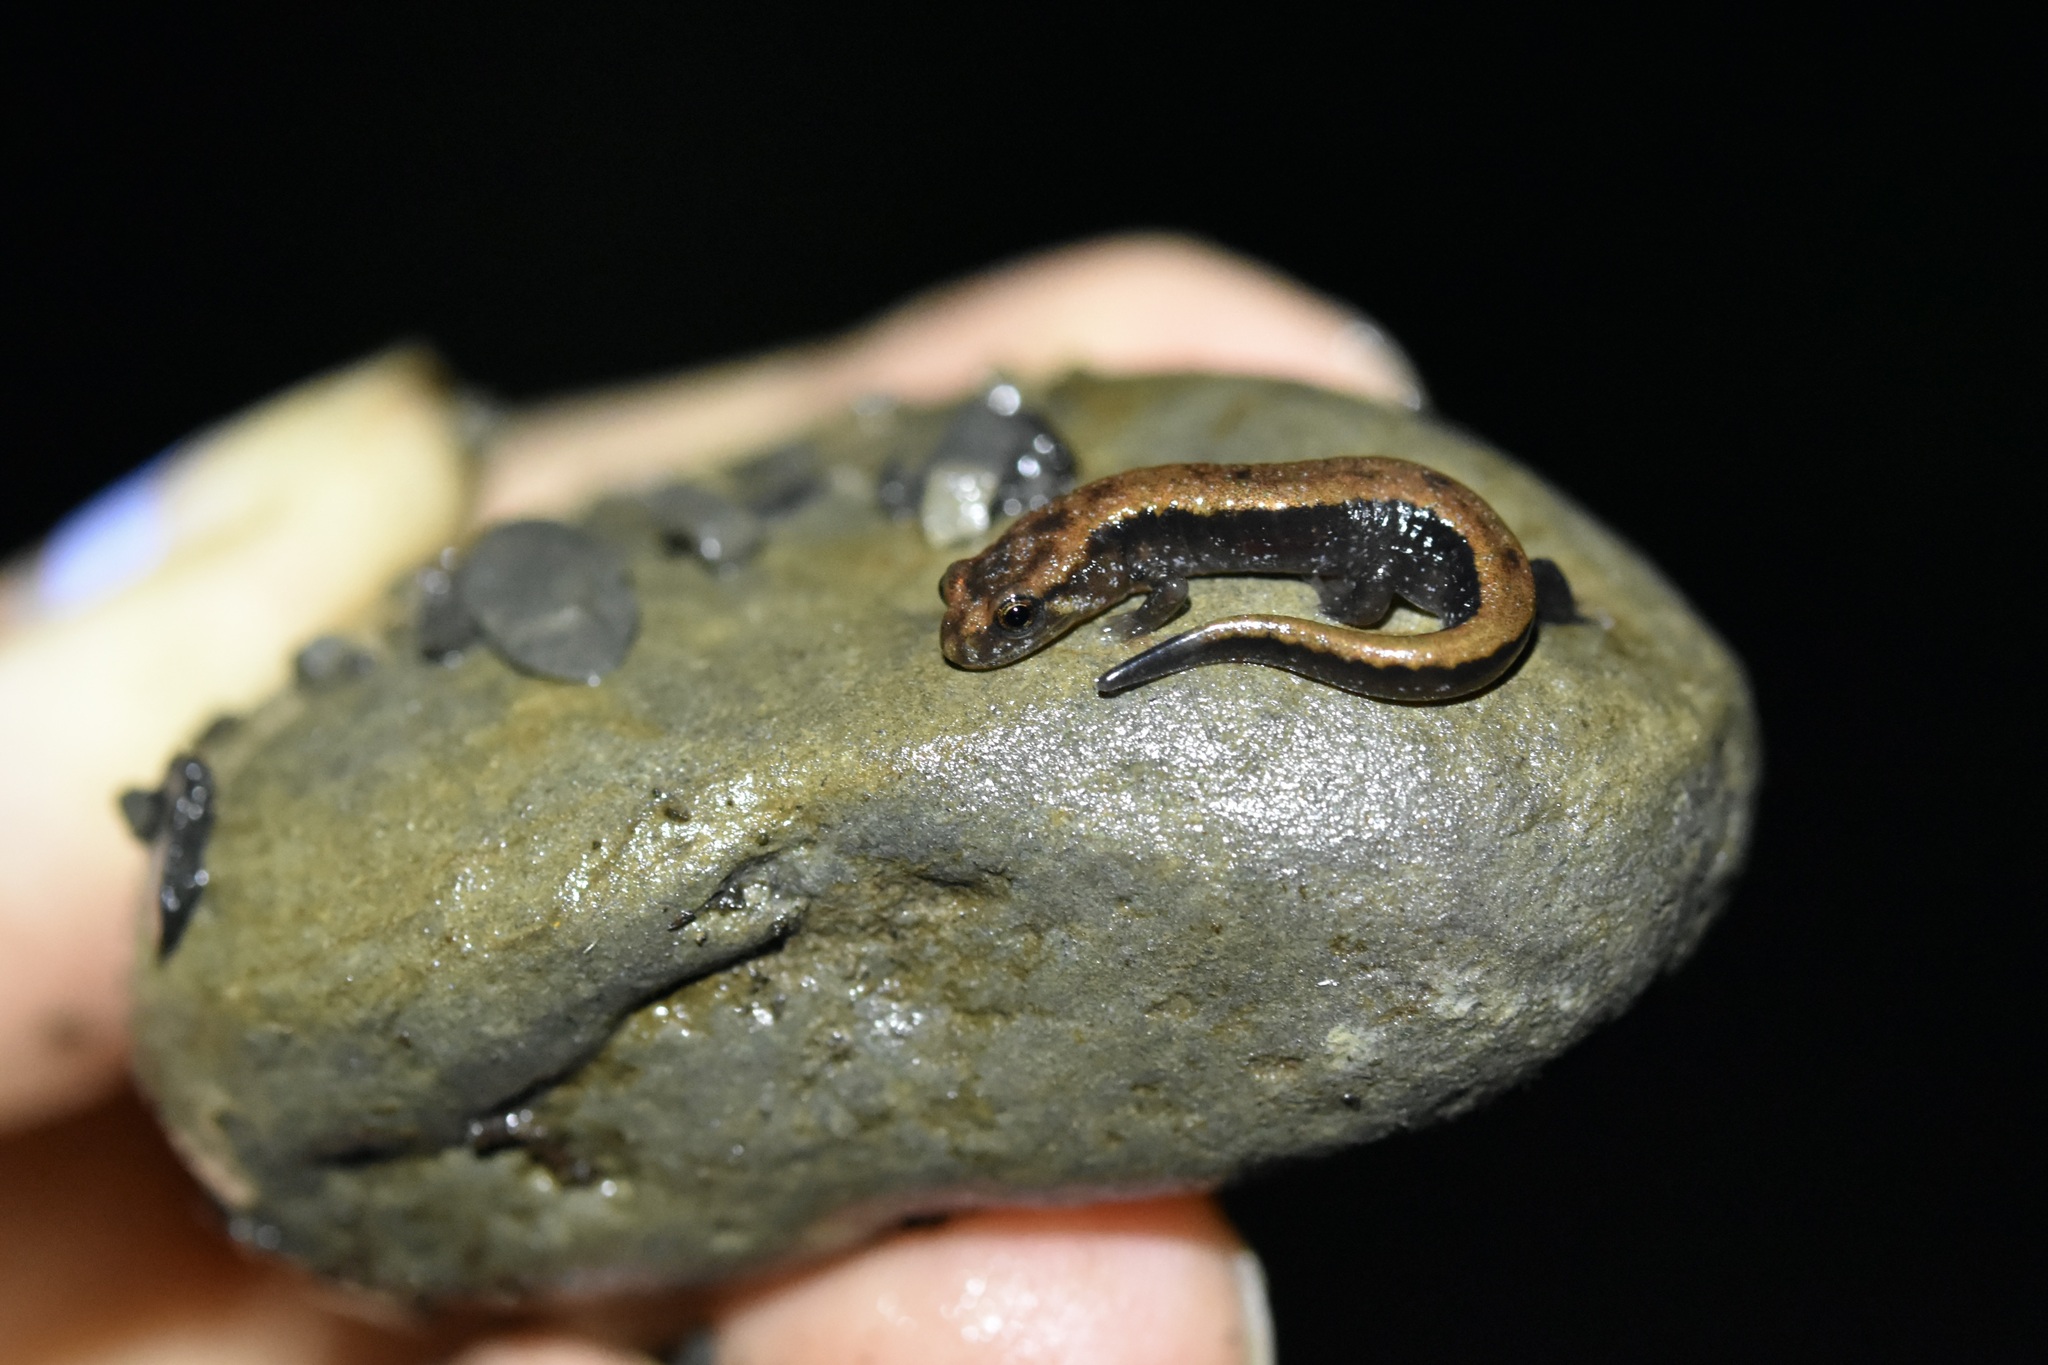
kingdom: Animalia
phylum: Chordata
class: Amphibia
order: Caudata
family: Plethodontidae
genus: Desmognathus
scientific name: Desmognathus ochrophaeus
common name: Allegheny mountain dusky salamander
